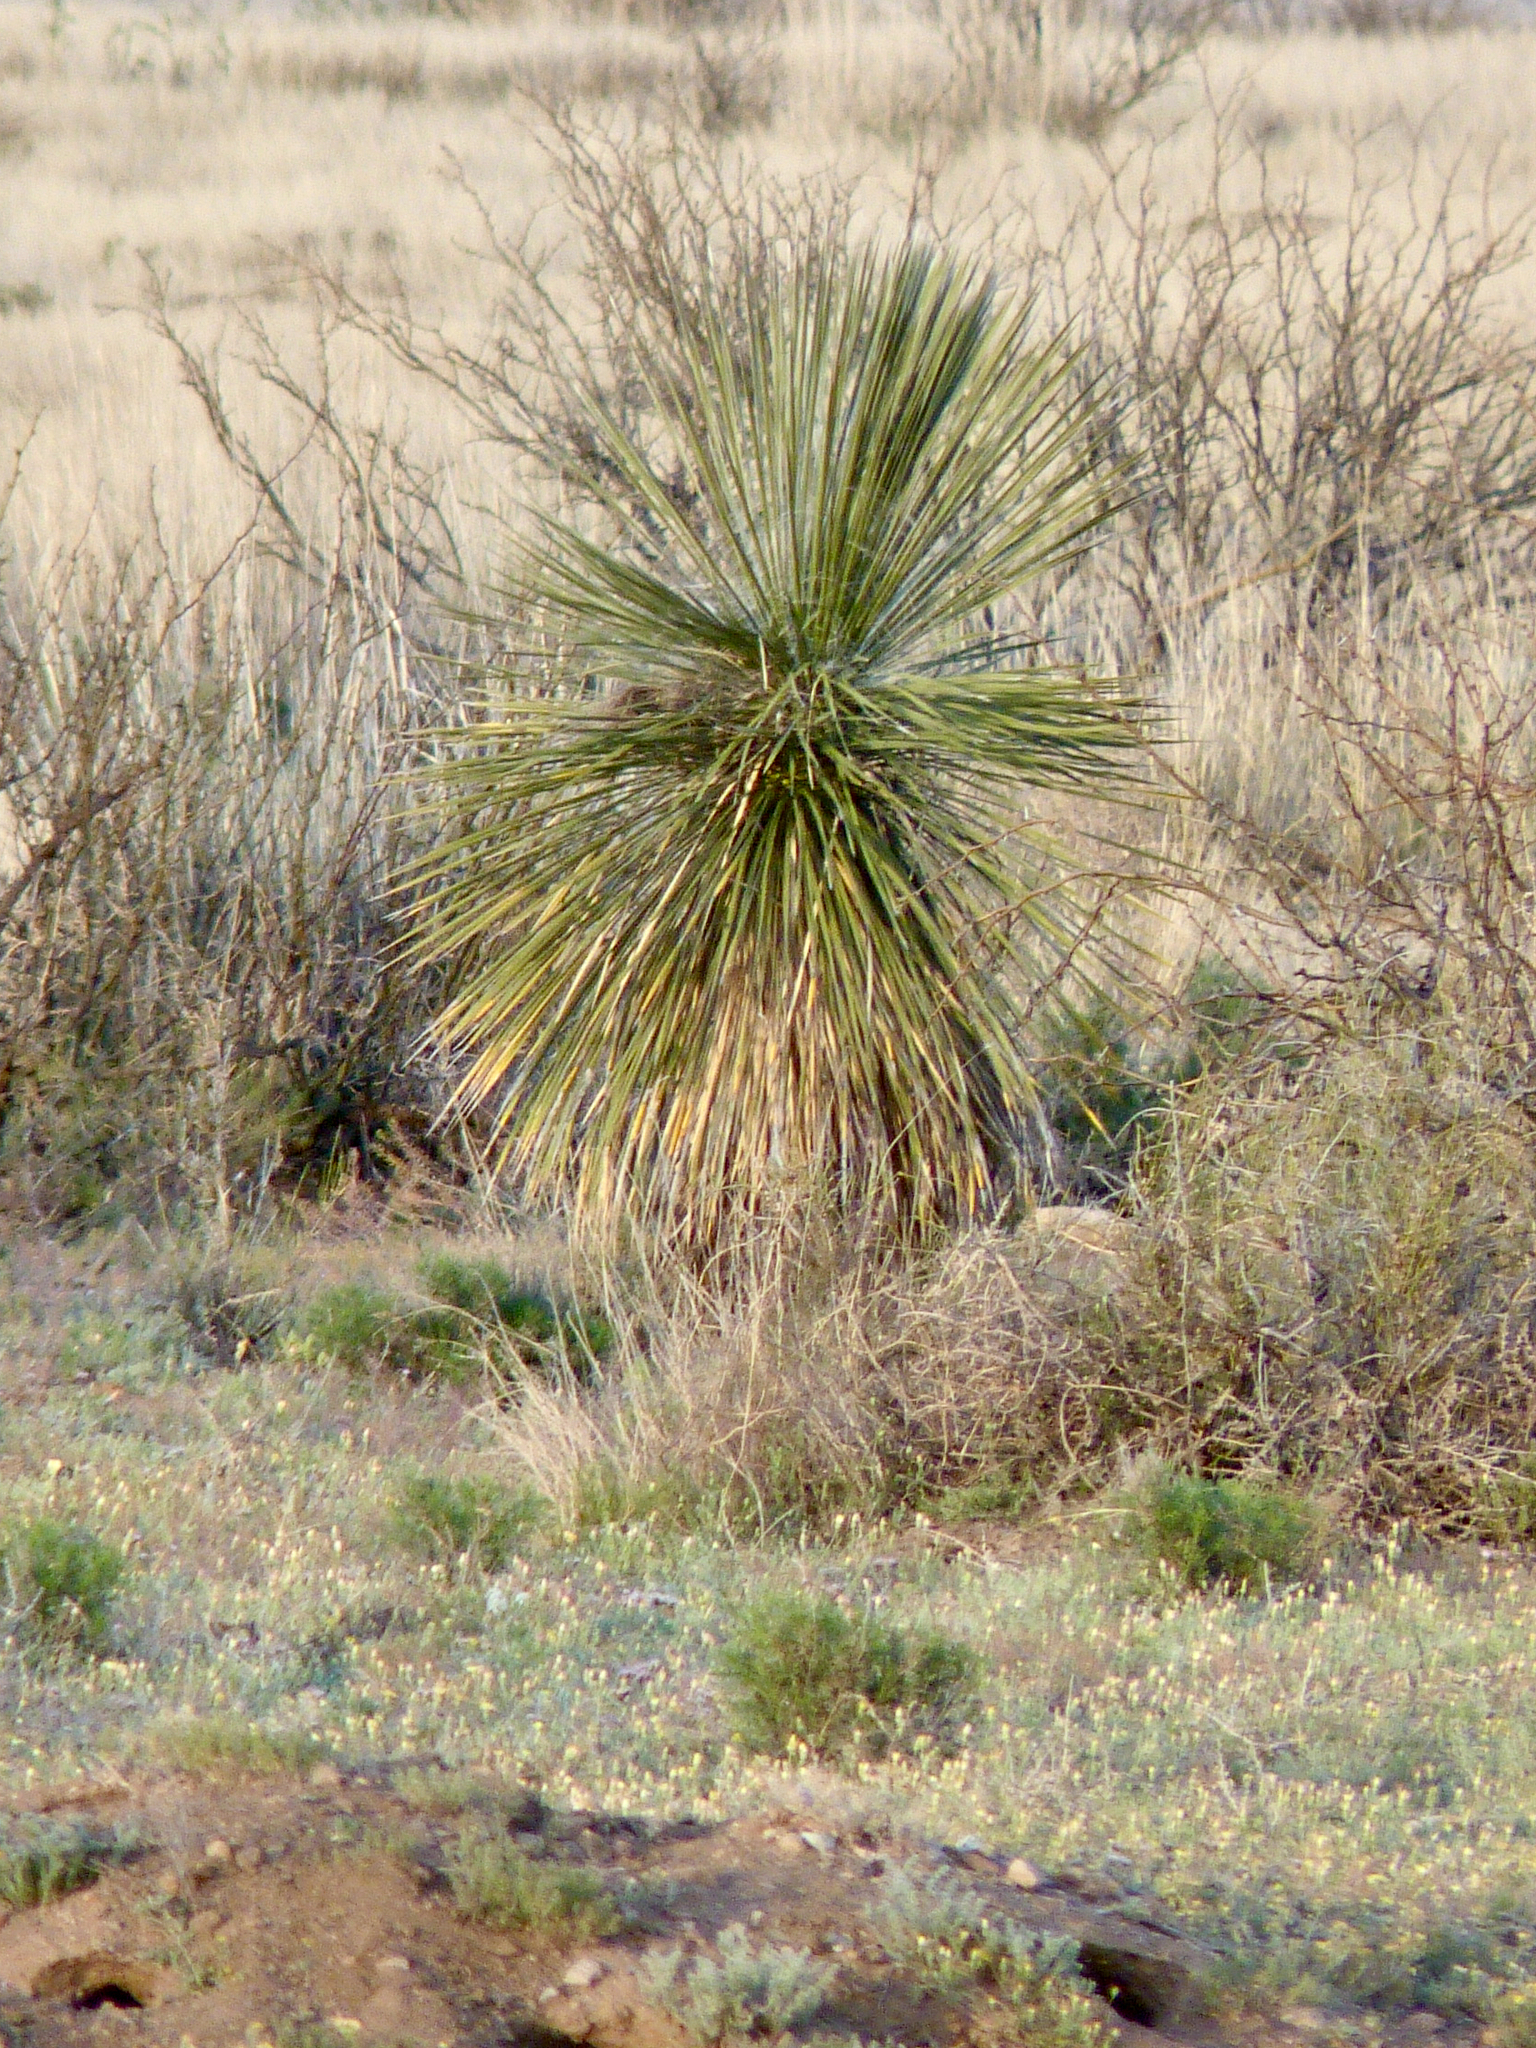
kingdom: Plantae
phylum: Tracheophyta
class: Liliopsida
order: Asparagales
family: Asparagaceae
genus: Yucca
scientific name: Yucca elata
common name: Palmella
